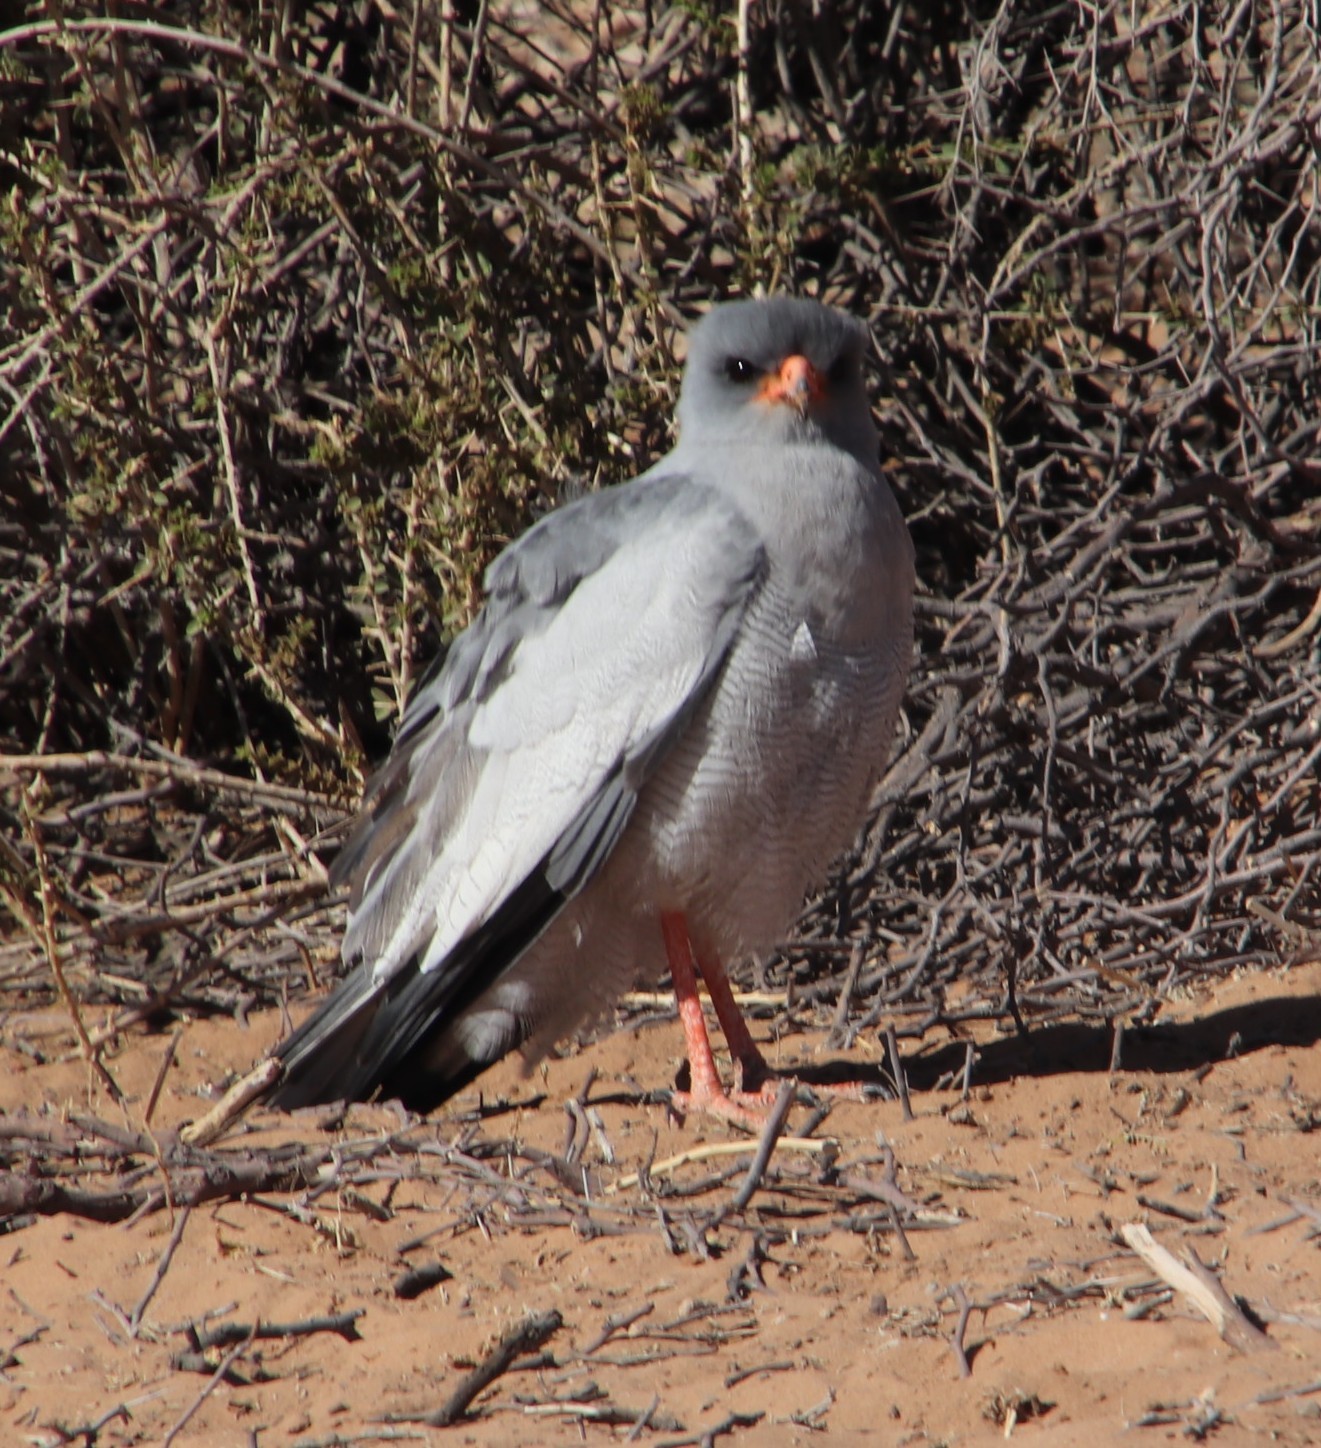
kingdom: Animalia
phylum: Chordata
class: Aves
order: Accipitriformes
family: Accipitridae
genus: Melierax
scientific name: Melierax canorus
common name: Pale chanting-goshawk
